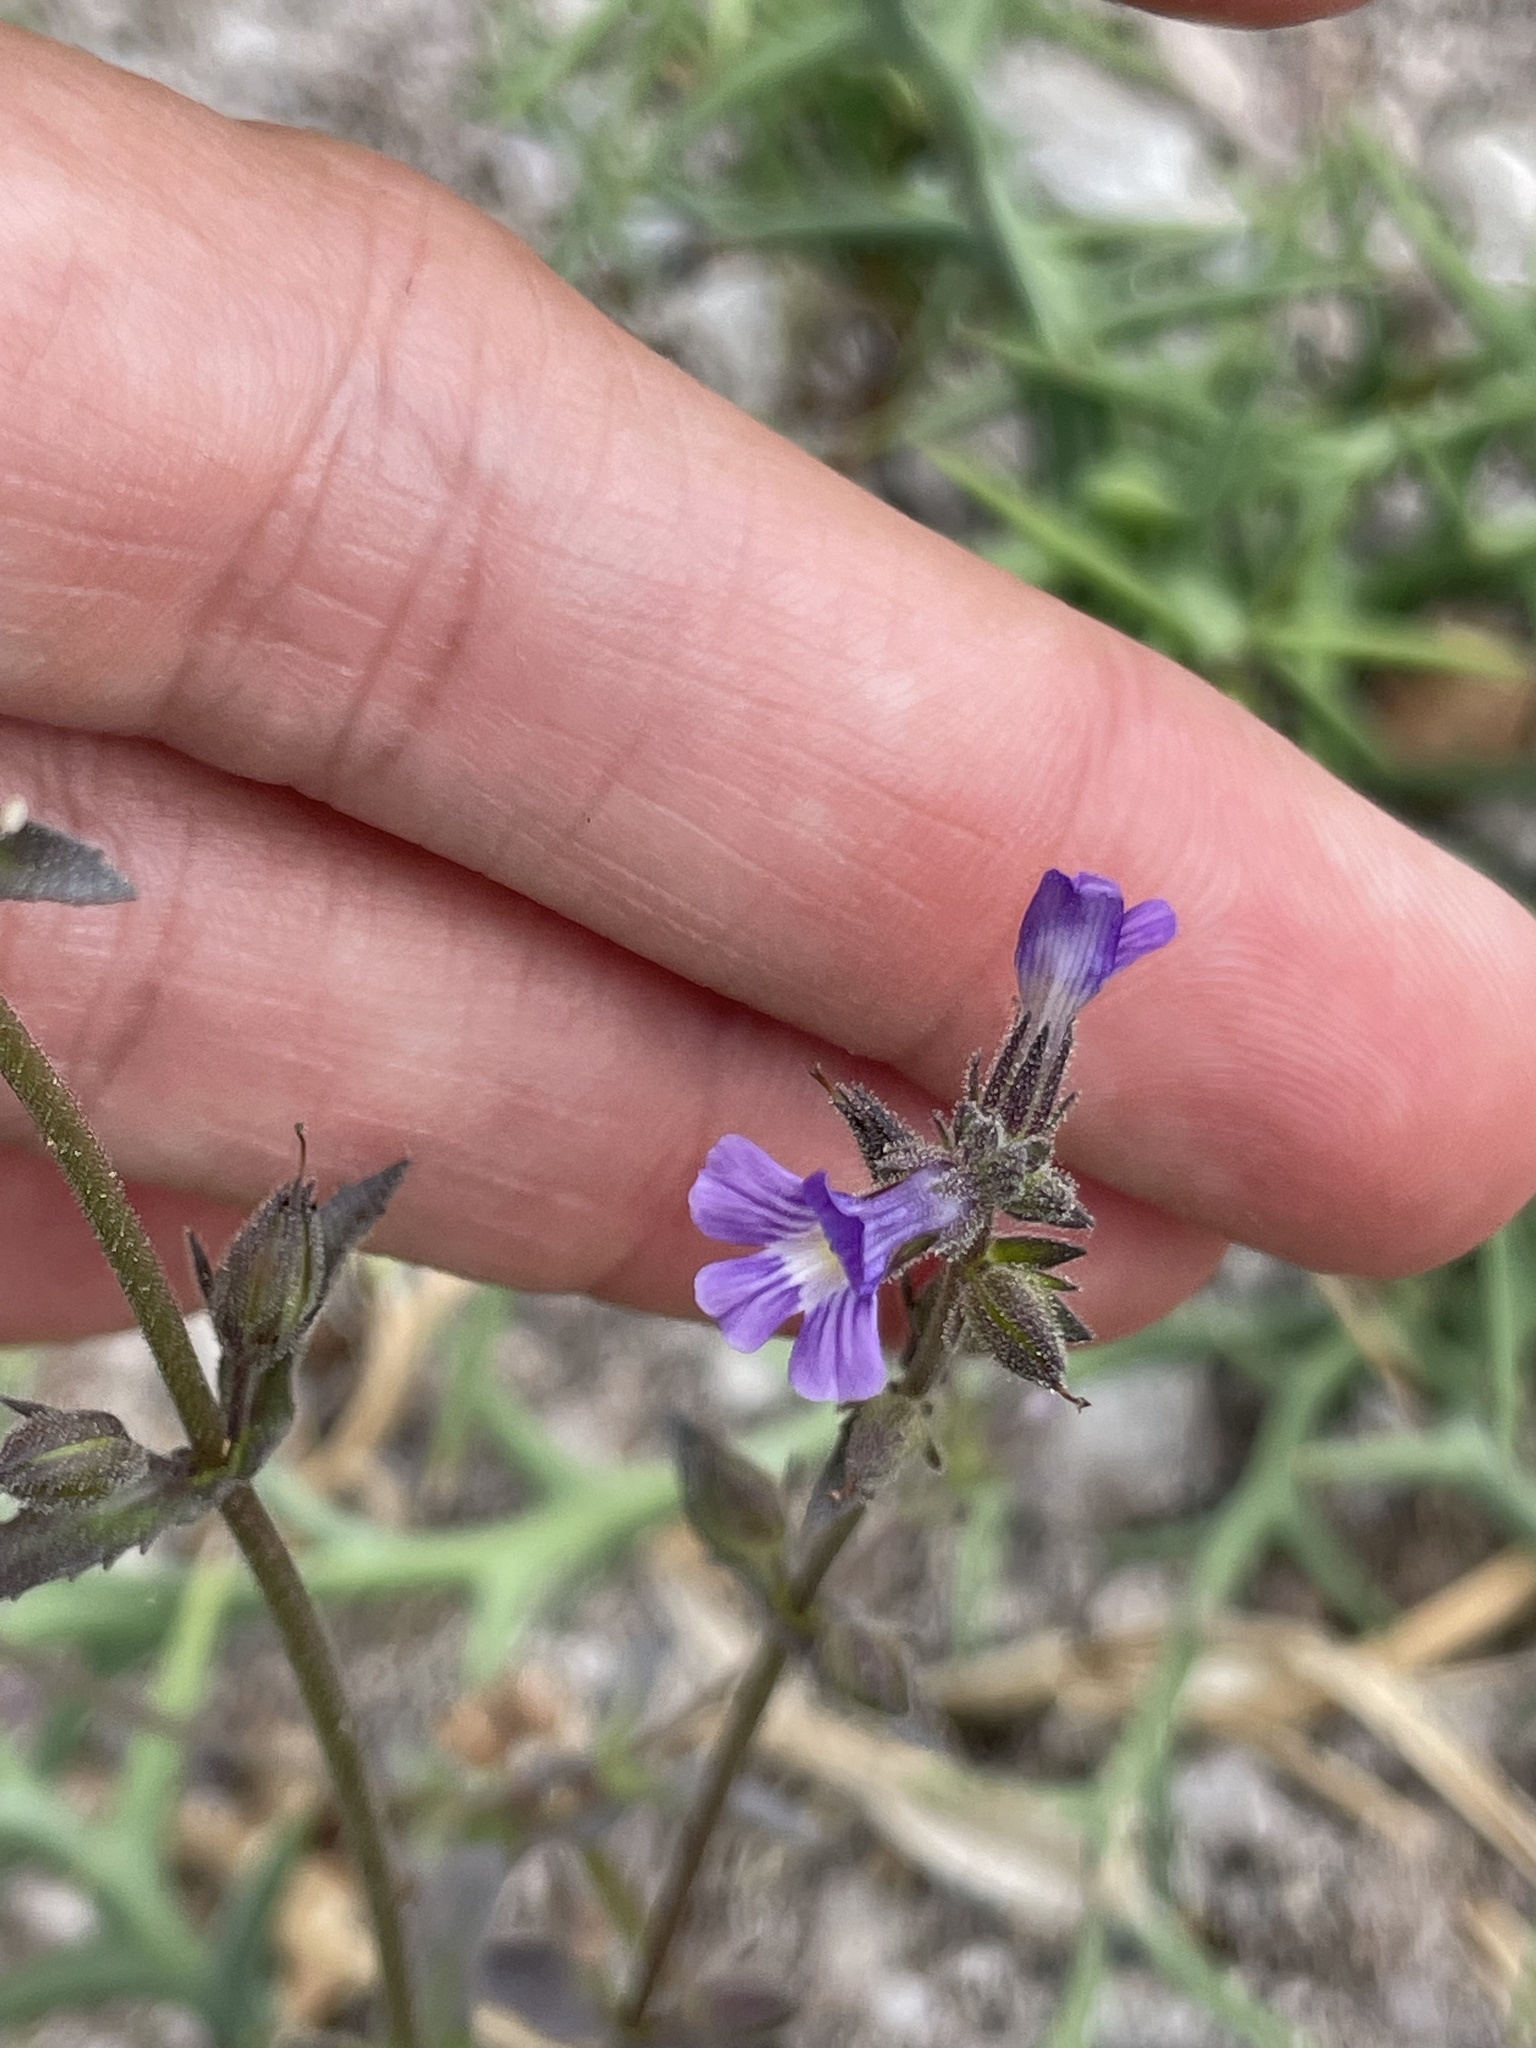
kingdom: Plantae
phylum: Tracheophyta
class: Magnoliopsida
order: Lamiales
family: Plantaginaceae
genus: Stemodia
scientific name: Stemodia durantifolia
